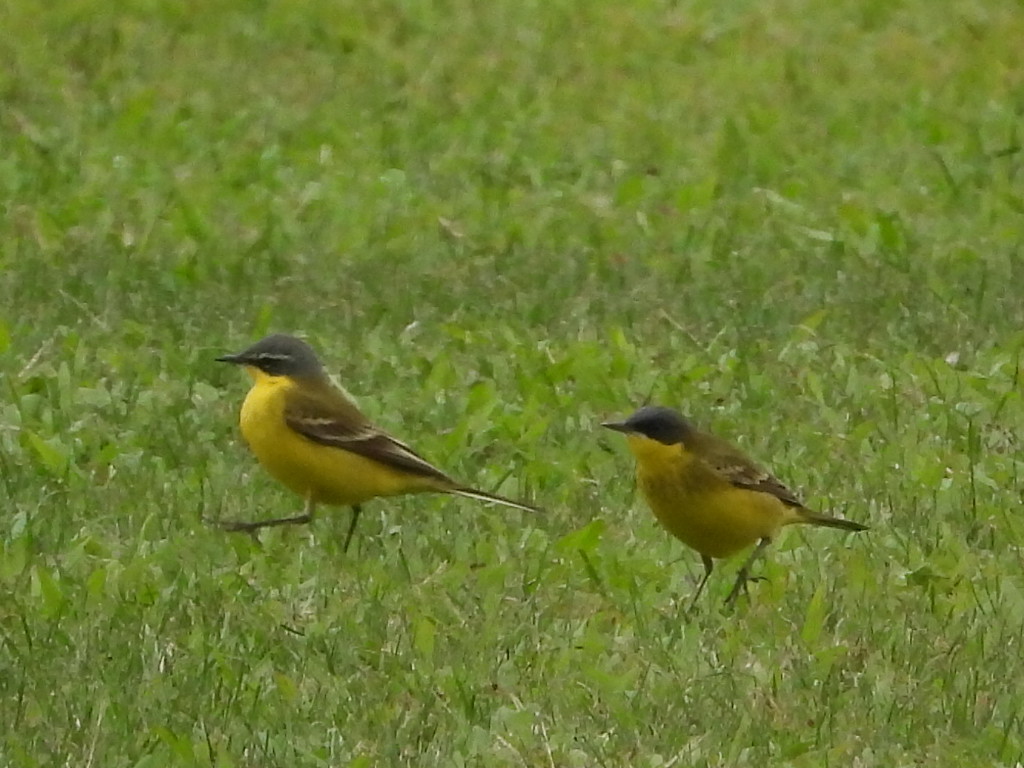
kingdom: Animalia
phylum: Chordata
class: Aves
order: Passeriformes
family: Motacillidae
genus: Motacilla
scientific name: Motacilla tschutschensis
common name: Eastern yellow wagtail
